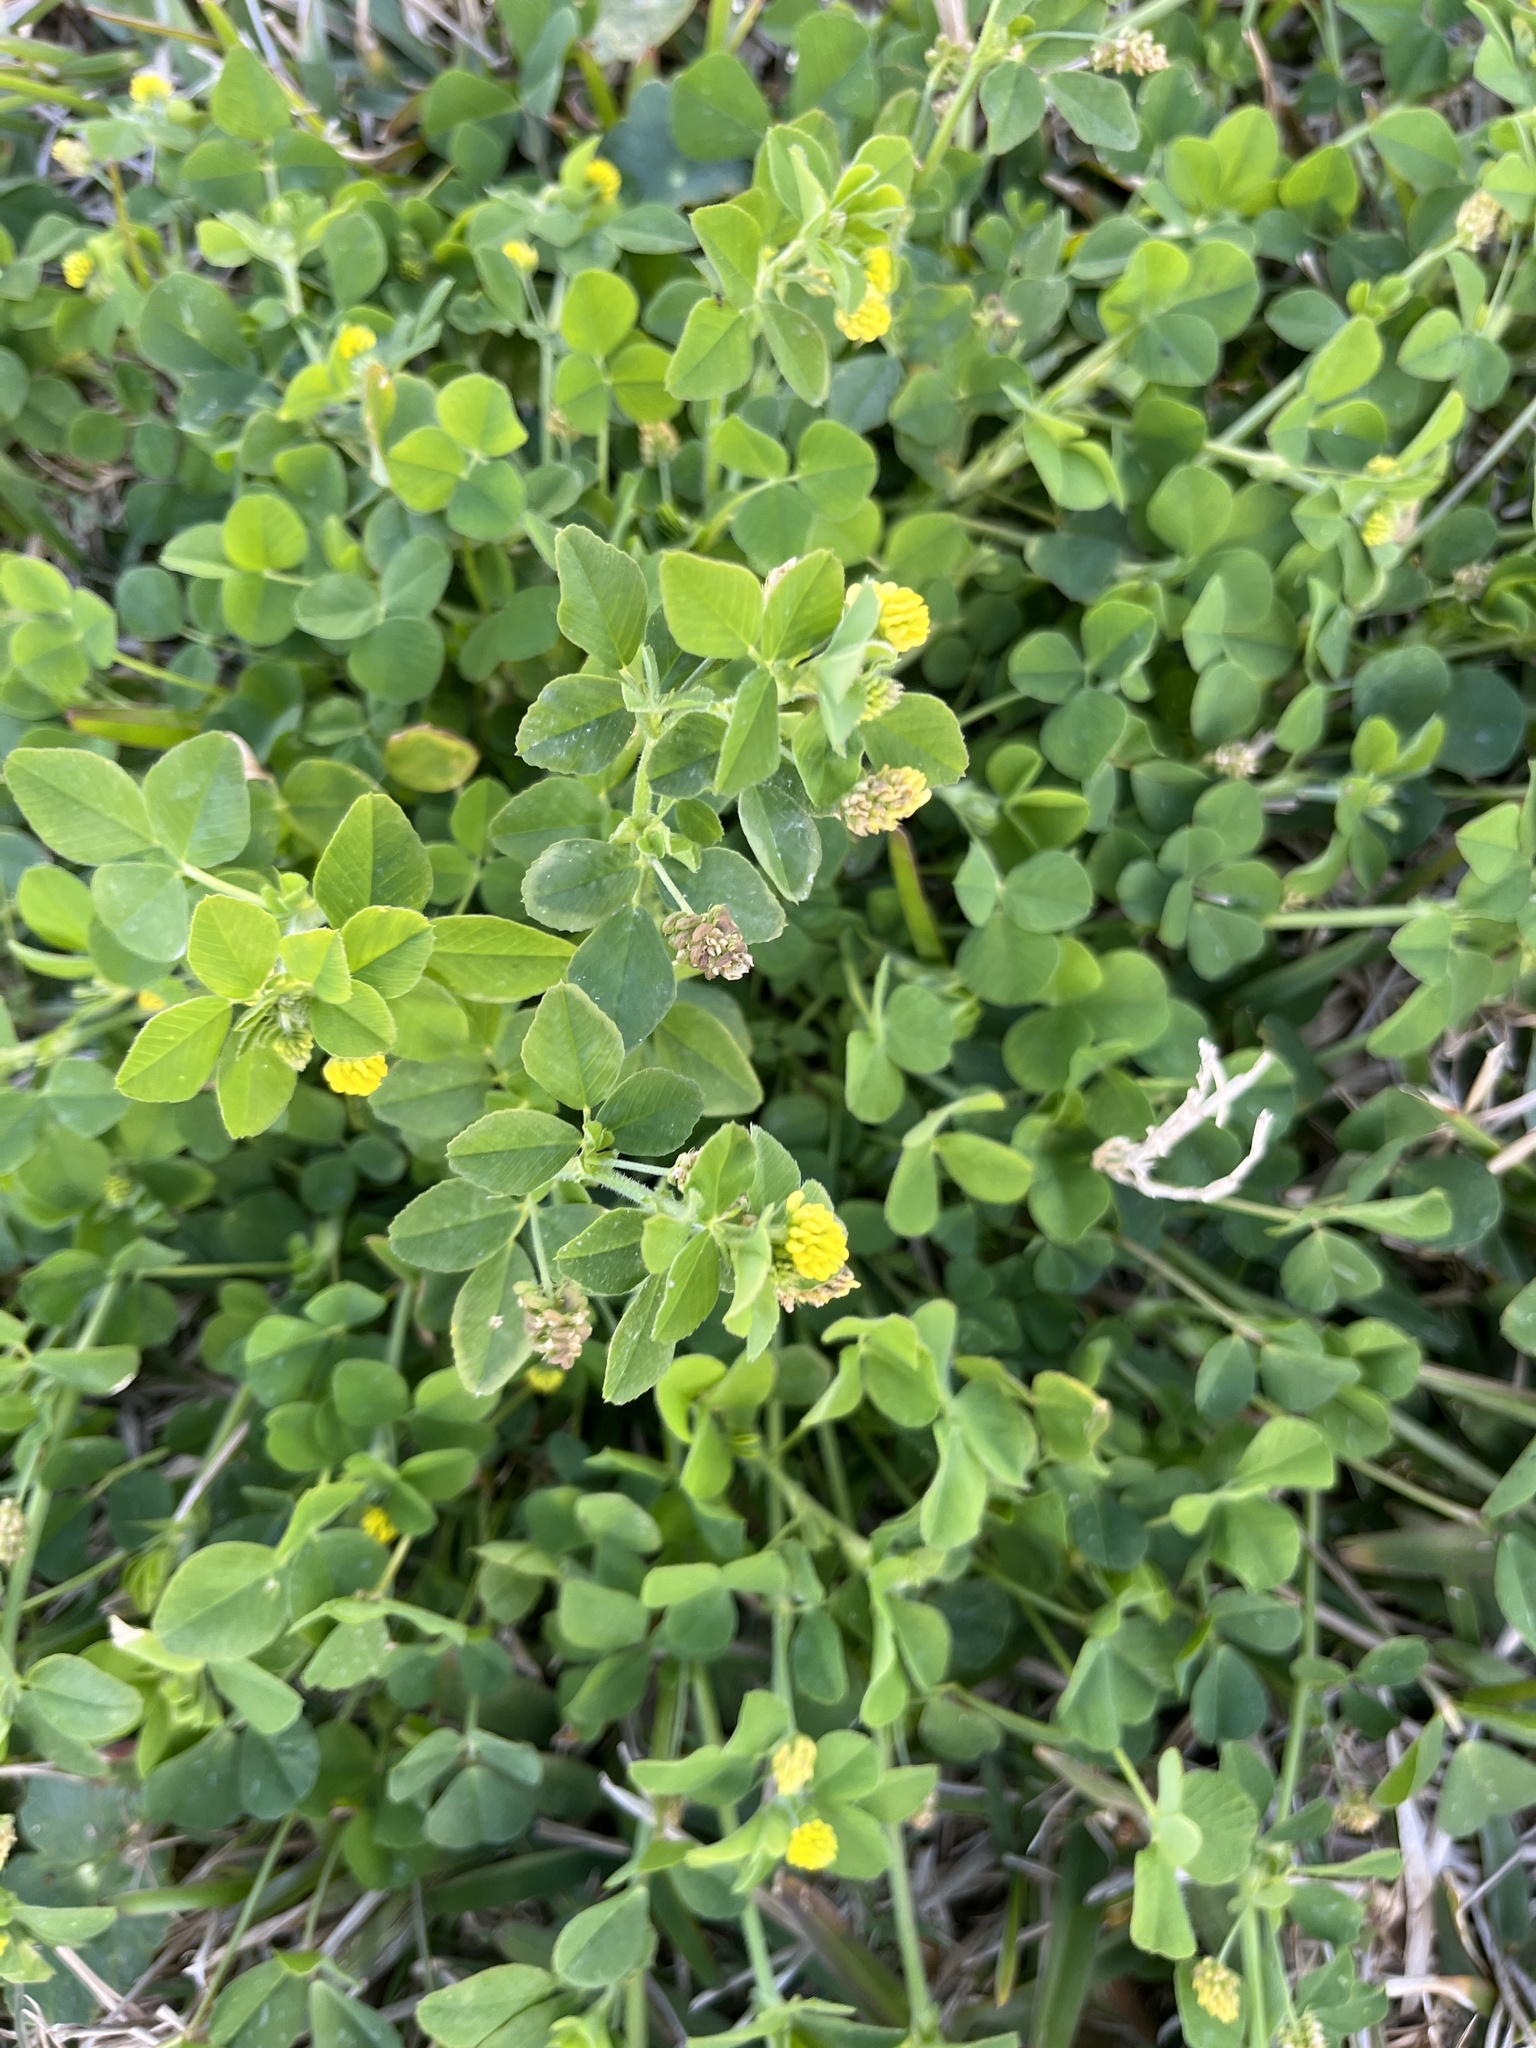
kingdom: Plantae
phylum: Tracheophyta
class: Magnoliopsida
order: Fabales
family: Fabaceae
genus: Medicago
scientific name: Medicago lupulina
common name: Black medick
